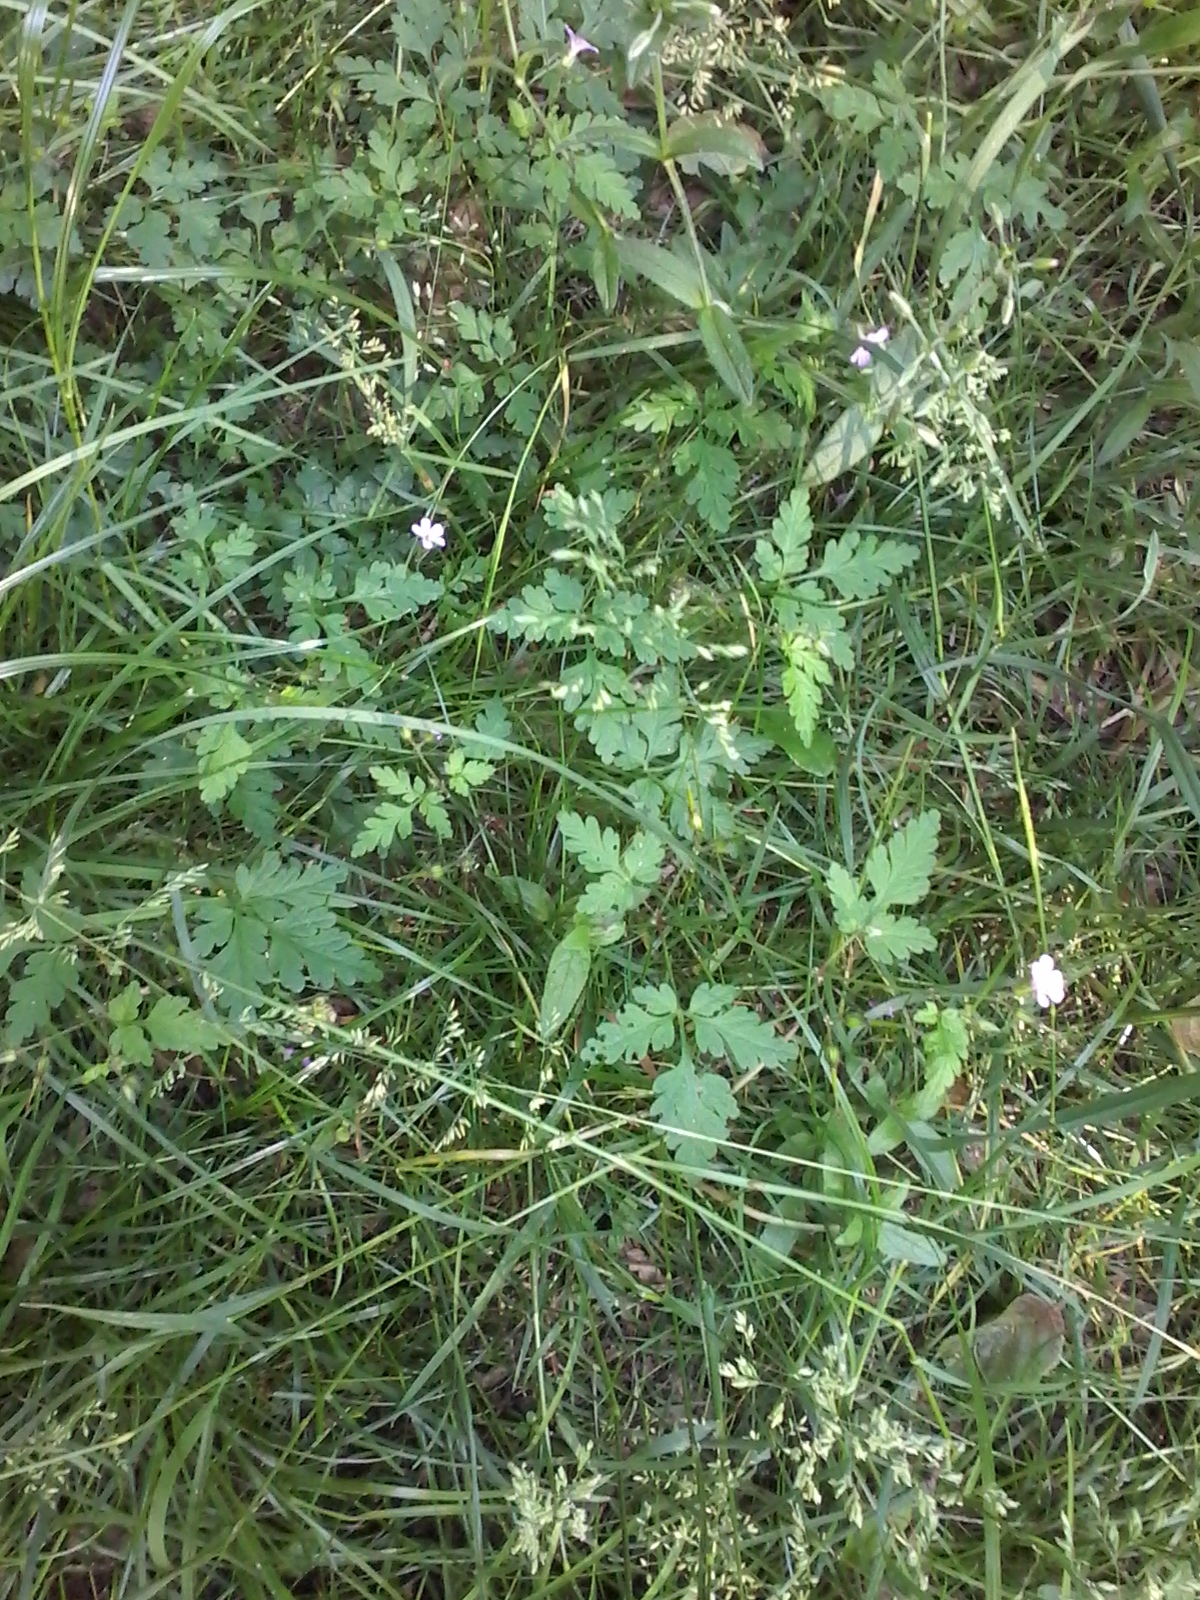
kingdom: Plantae
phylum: Tracheophyta
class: Magnoliopsida
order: Geraniales
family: Geraniaceae
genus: Geranium
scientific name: Geranium robertianum
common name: Herb-robert
